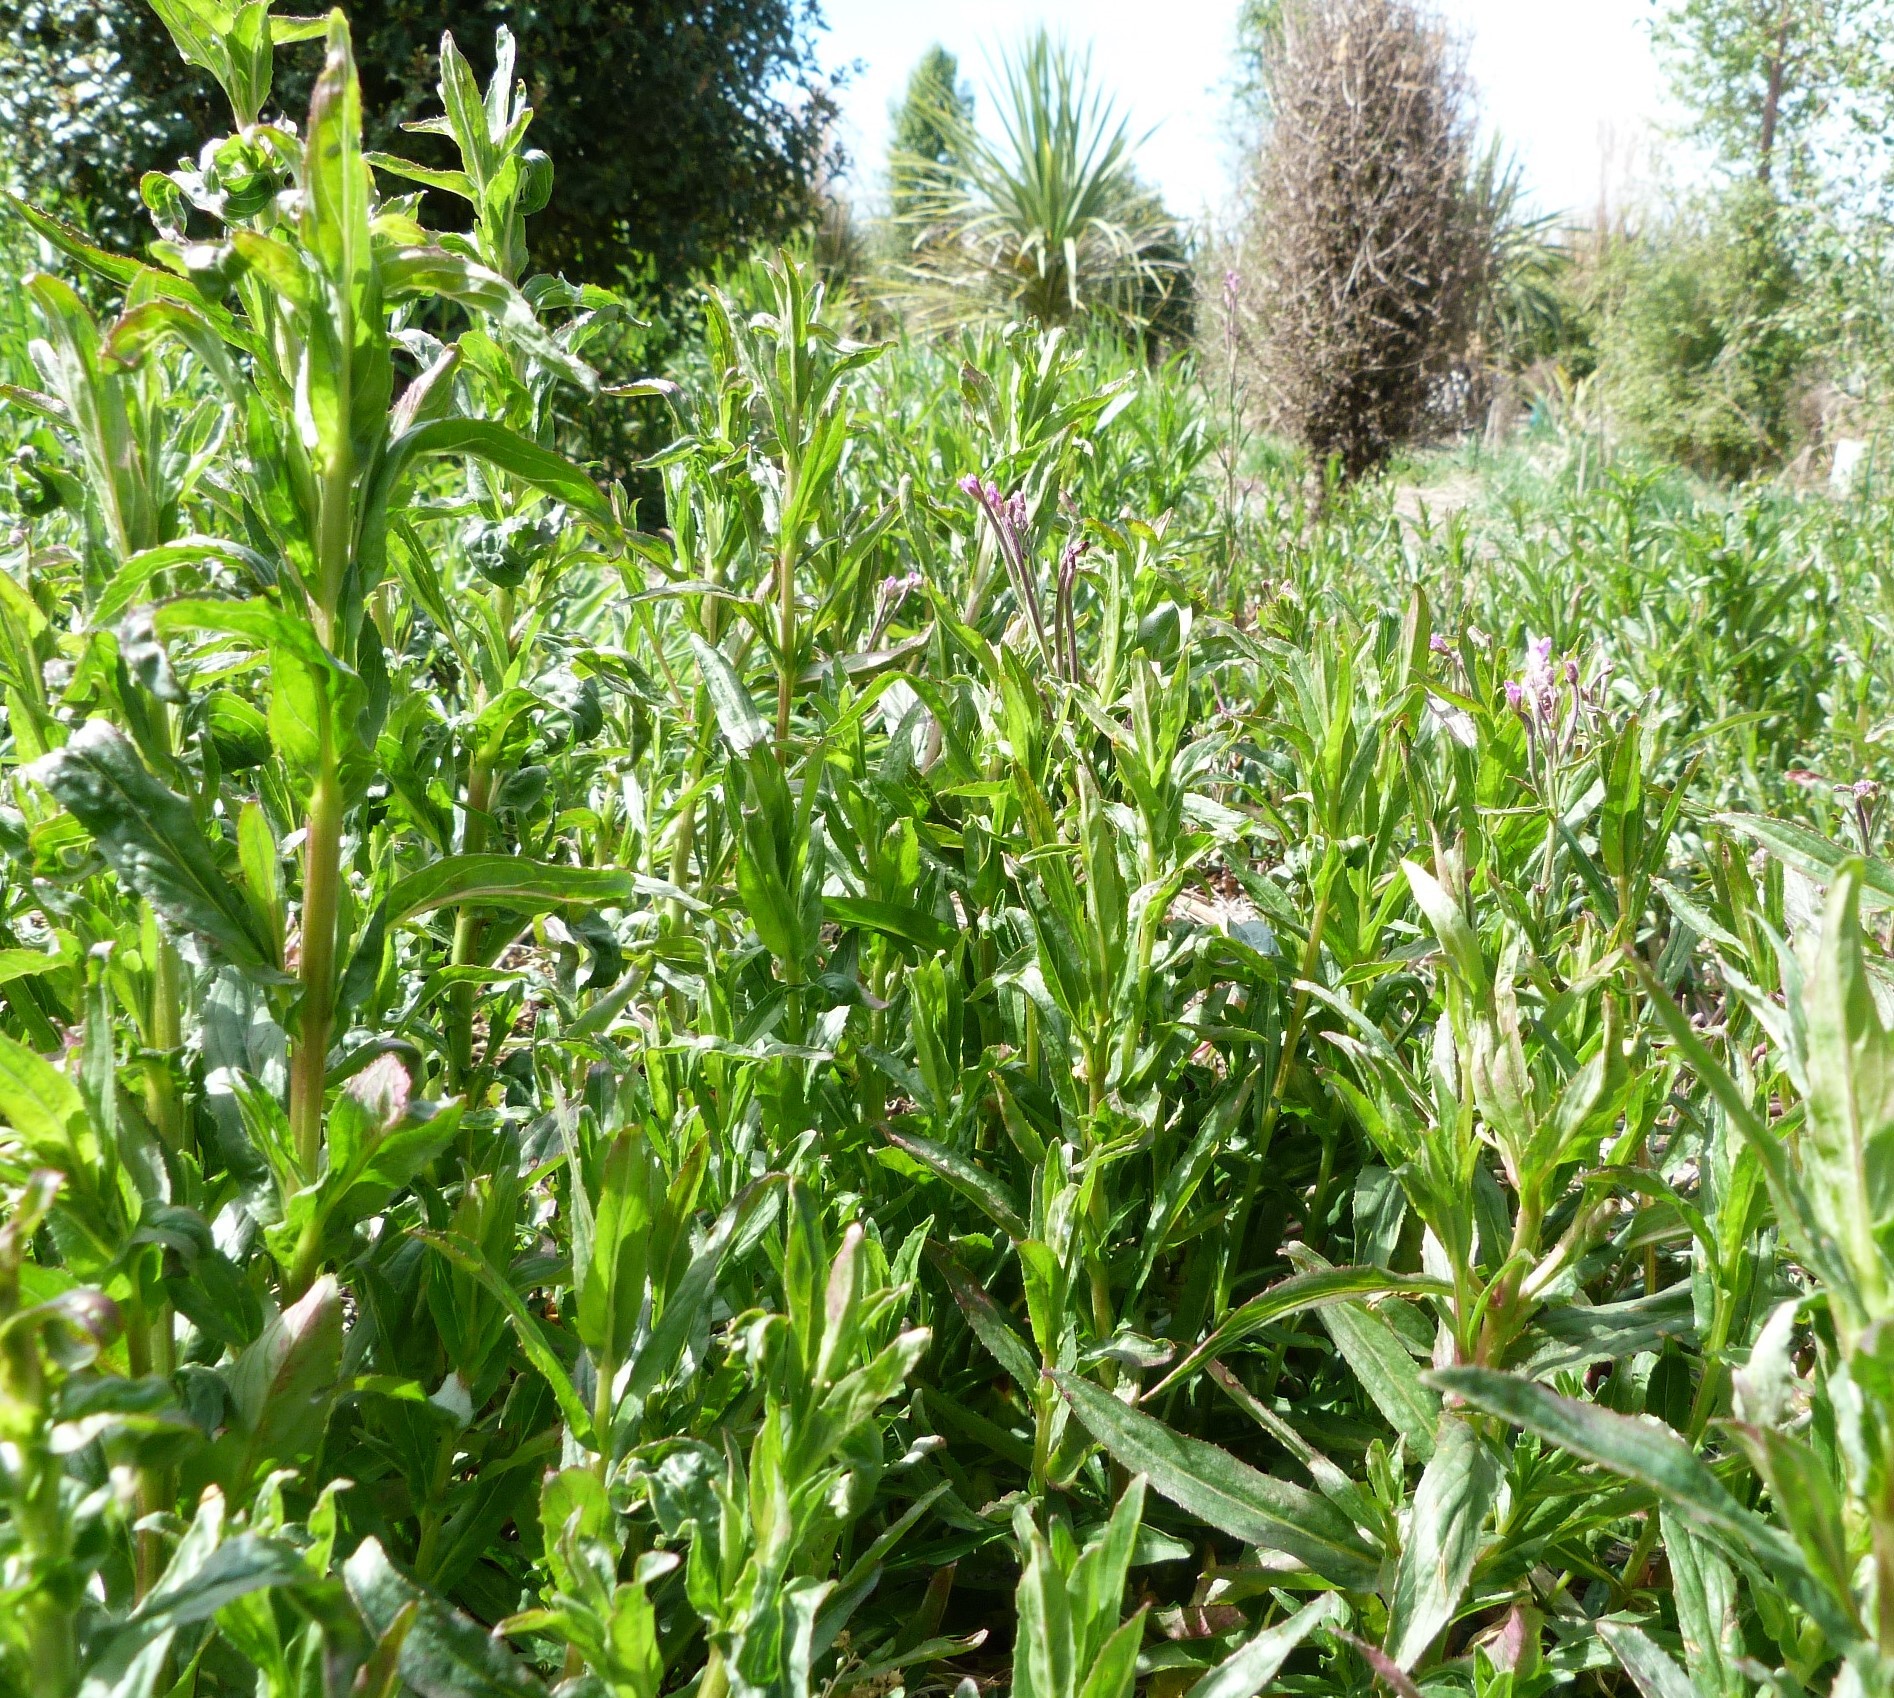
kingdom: Plantae
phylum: Tracheophyta
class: Magnoliopsida
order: Myrtales
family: Onagraceae
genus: Epilobium
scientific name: Epilobium ciliatum
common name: American willowherb
